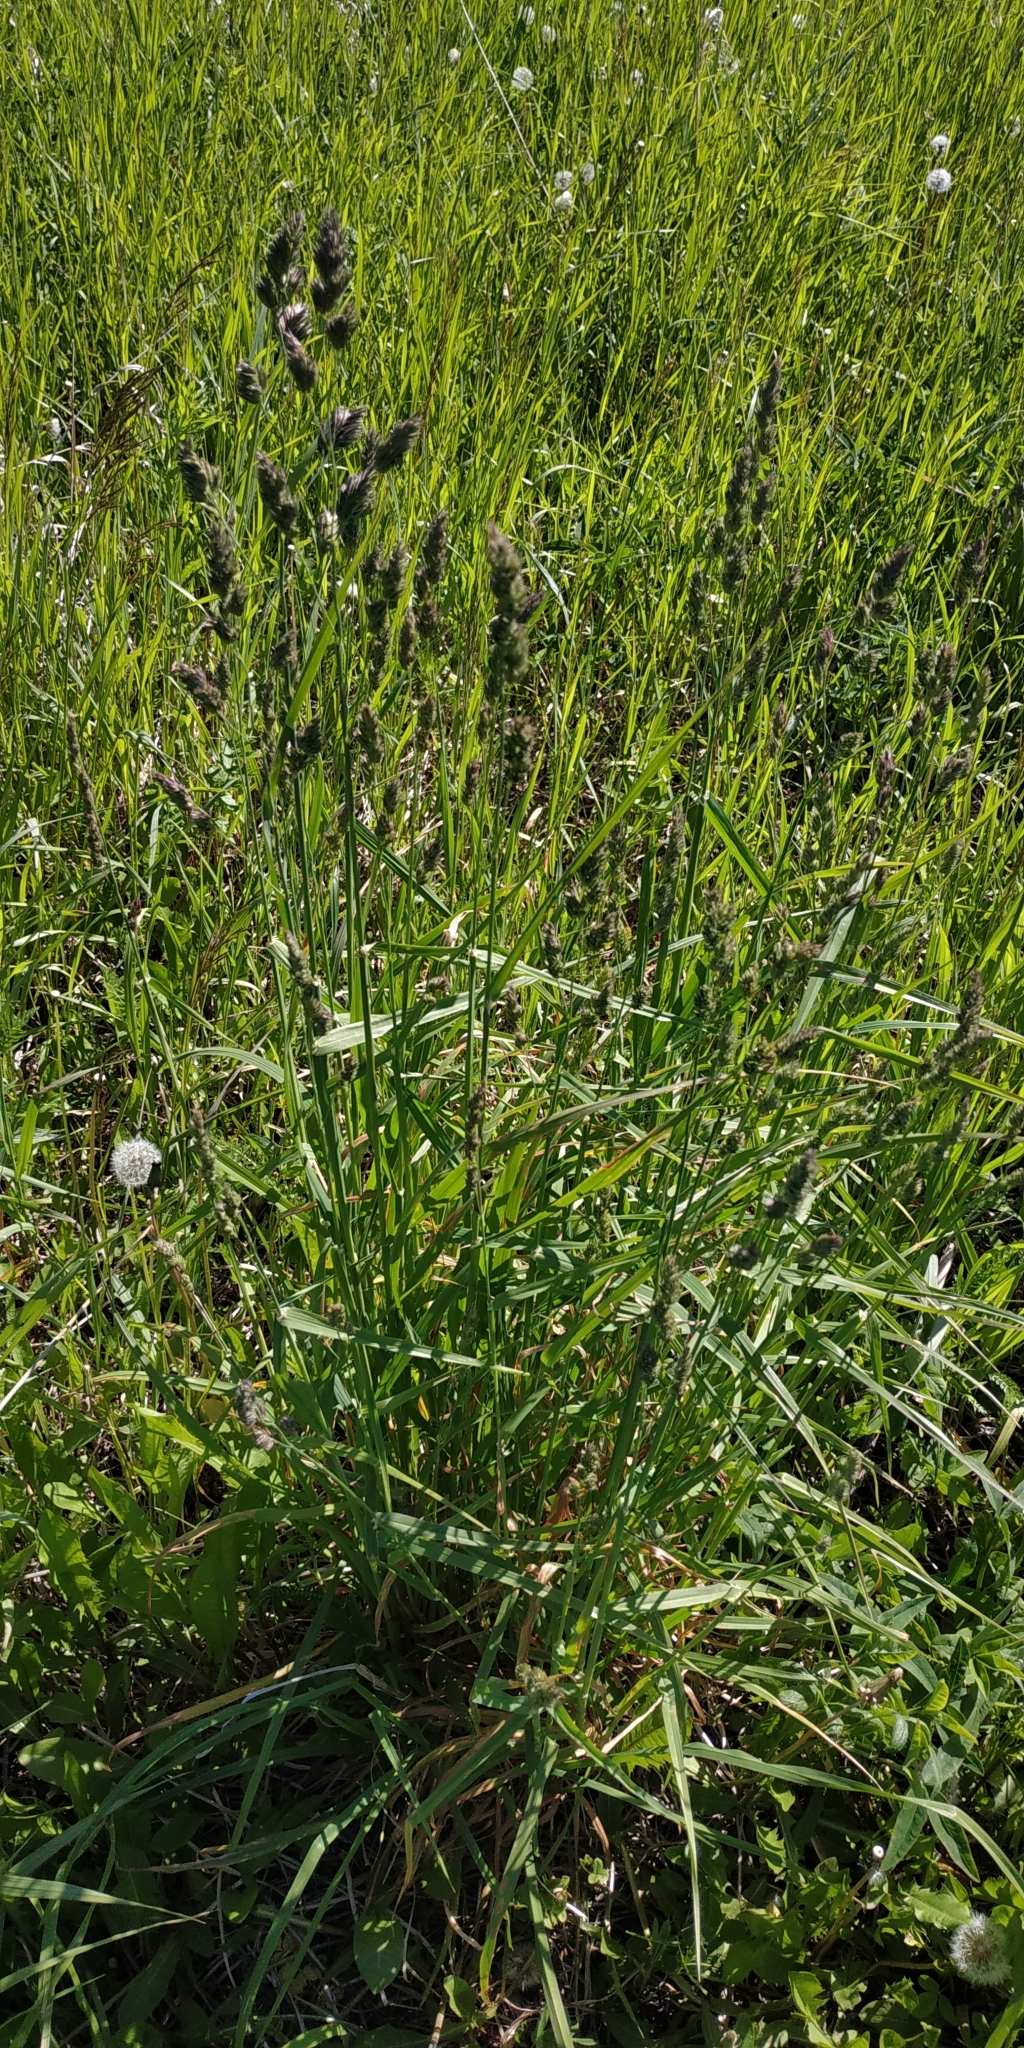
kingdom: Plantae
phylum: Tracheophyta
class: Liliopsida
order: Poales
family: Poaceae
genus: Dactylis
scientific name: Dactylis glomerata
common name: Orchardgrass
